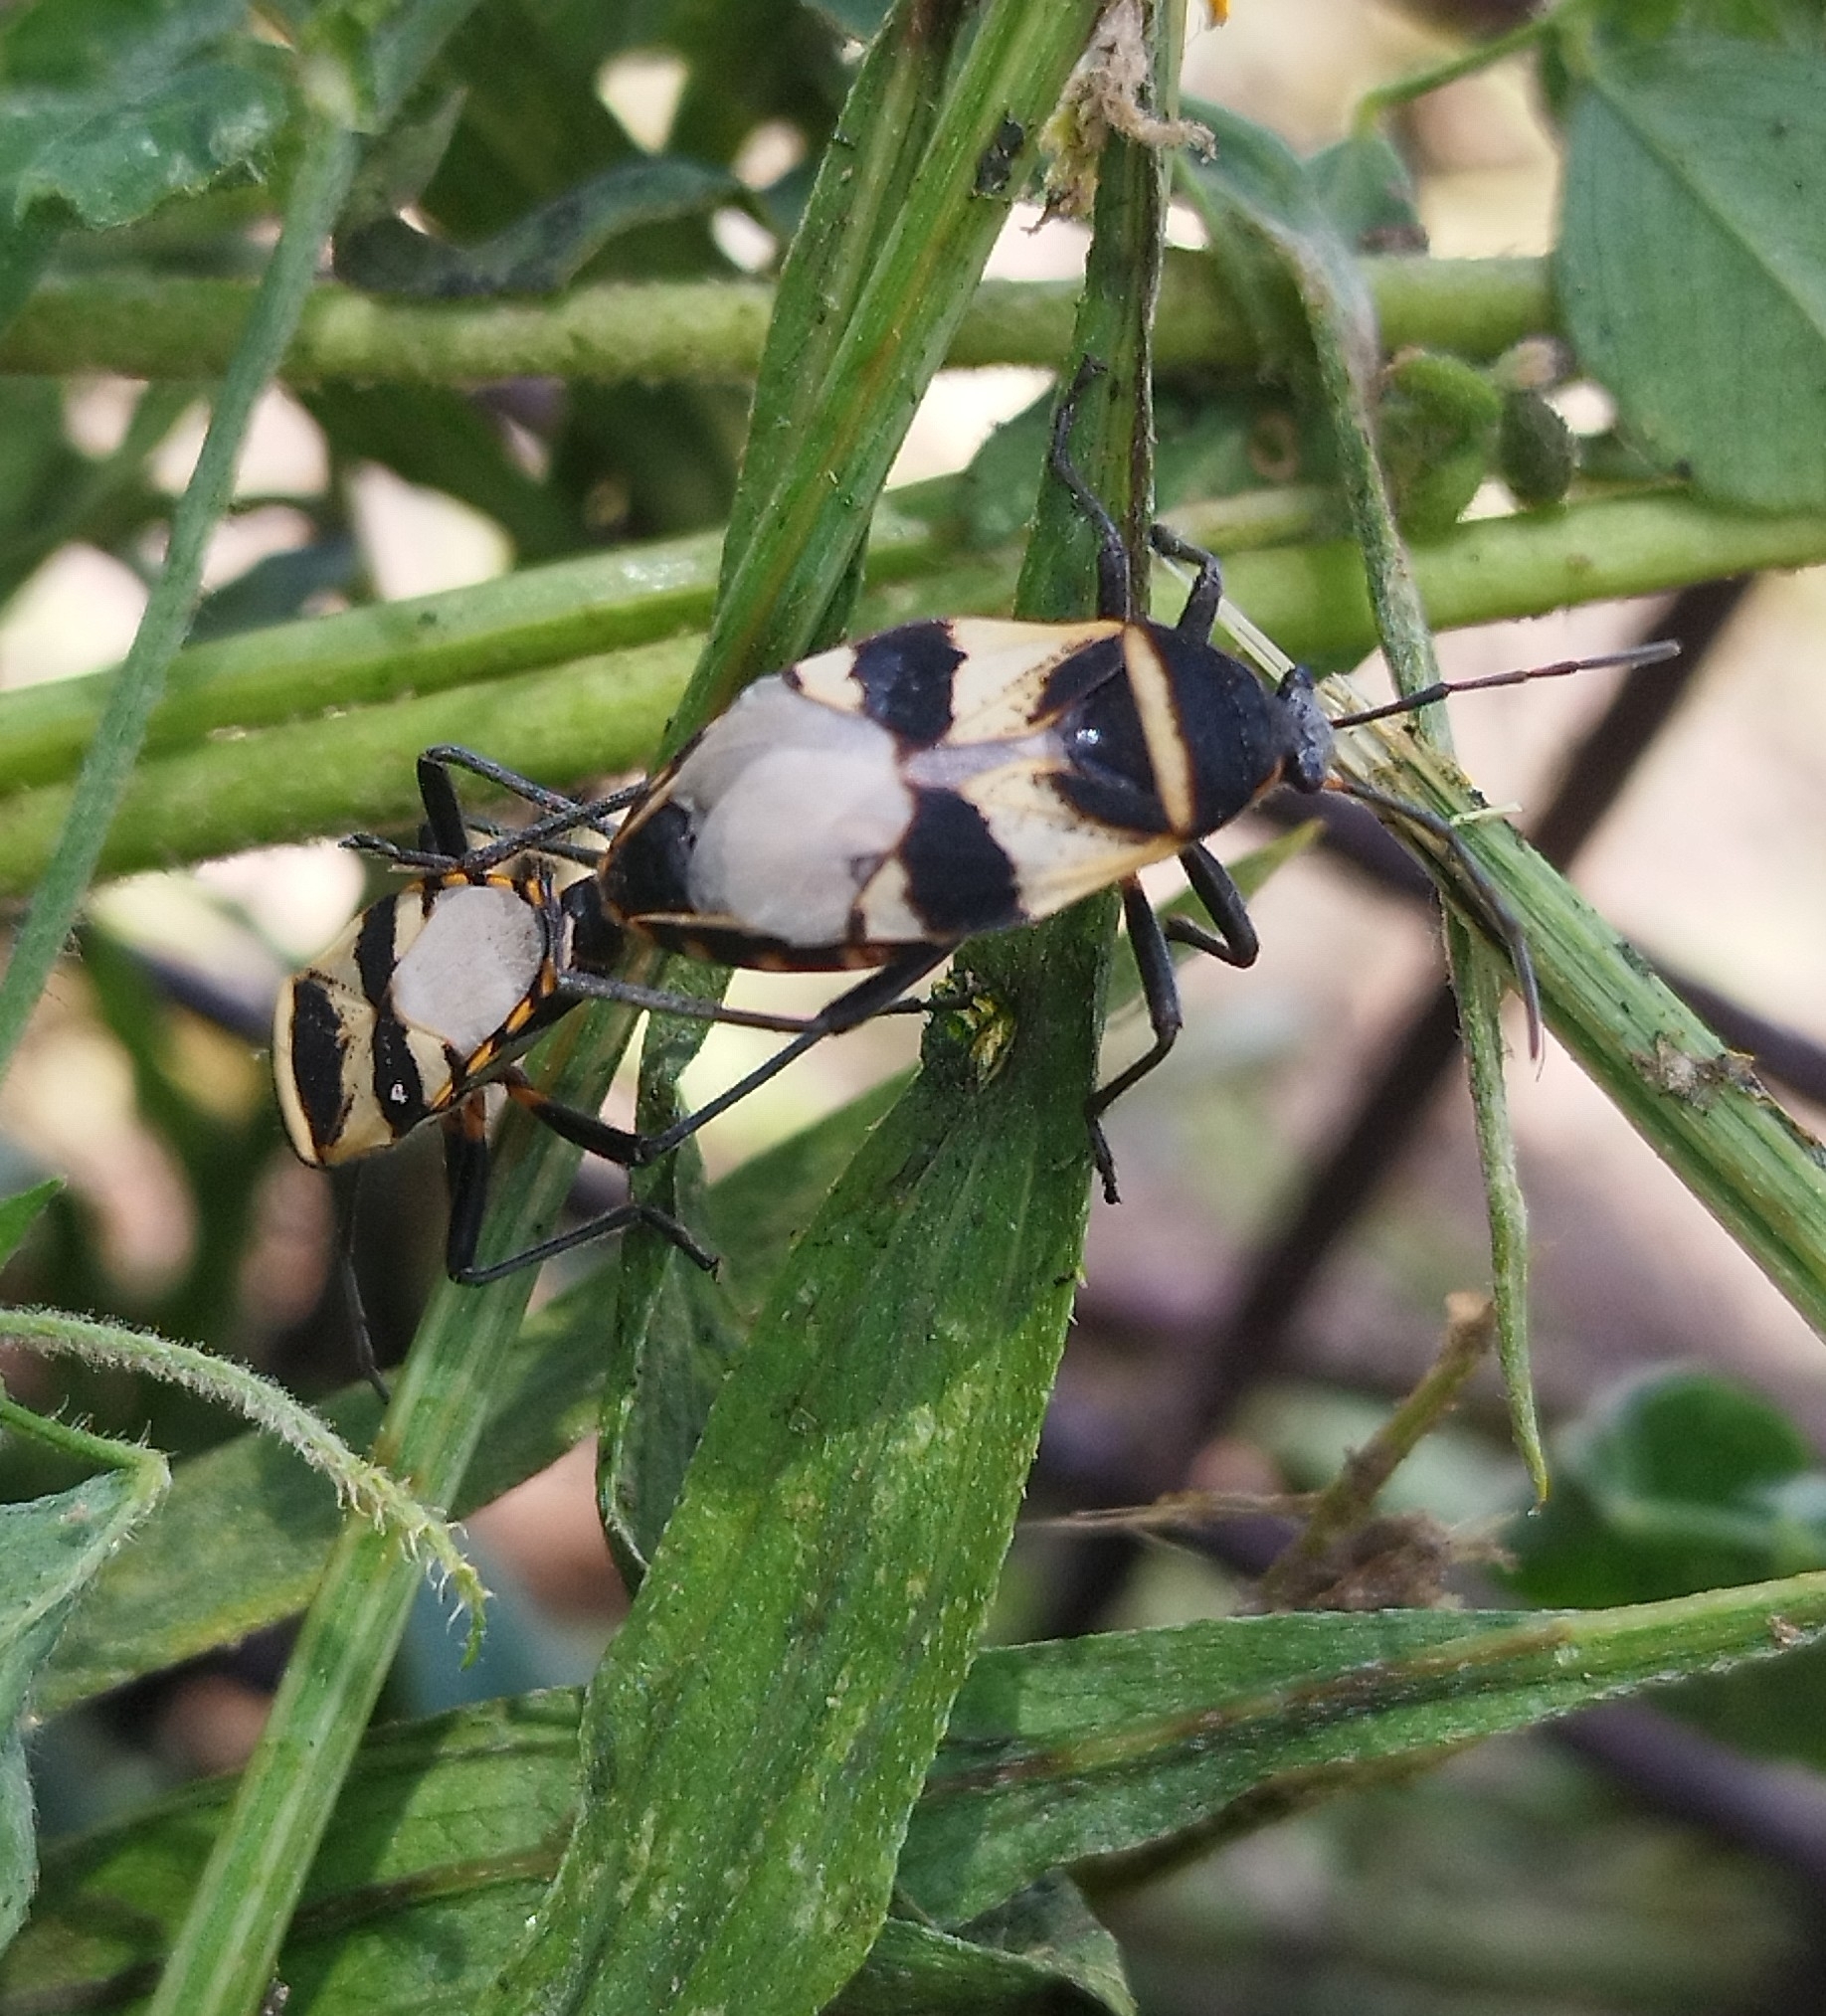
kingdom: Animalia
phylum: Arthropoda
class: Insecta
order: Hemiptera
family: Largidae
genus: Largus
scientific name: Largus fasciatus
